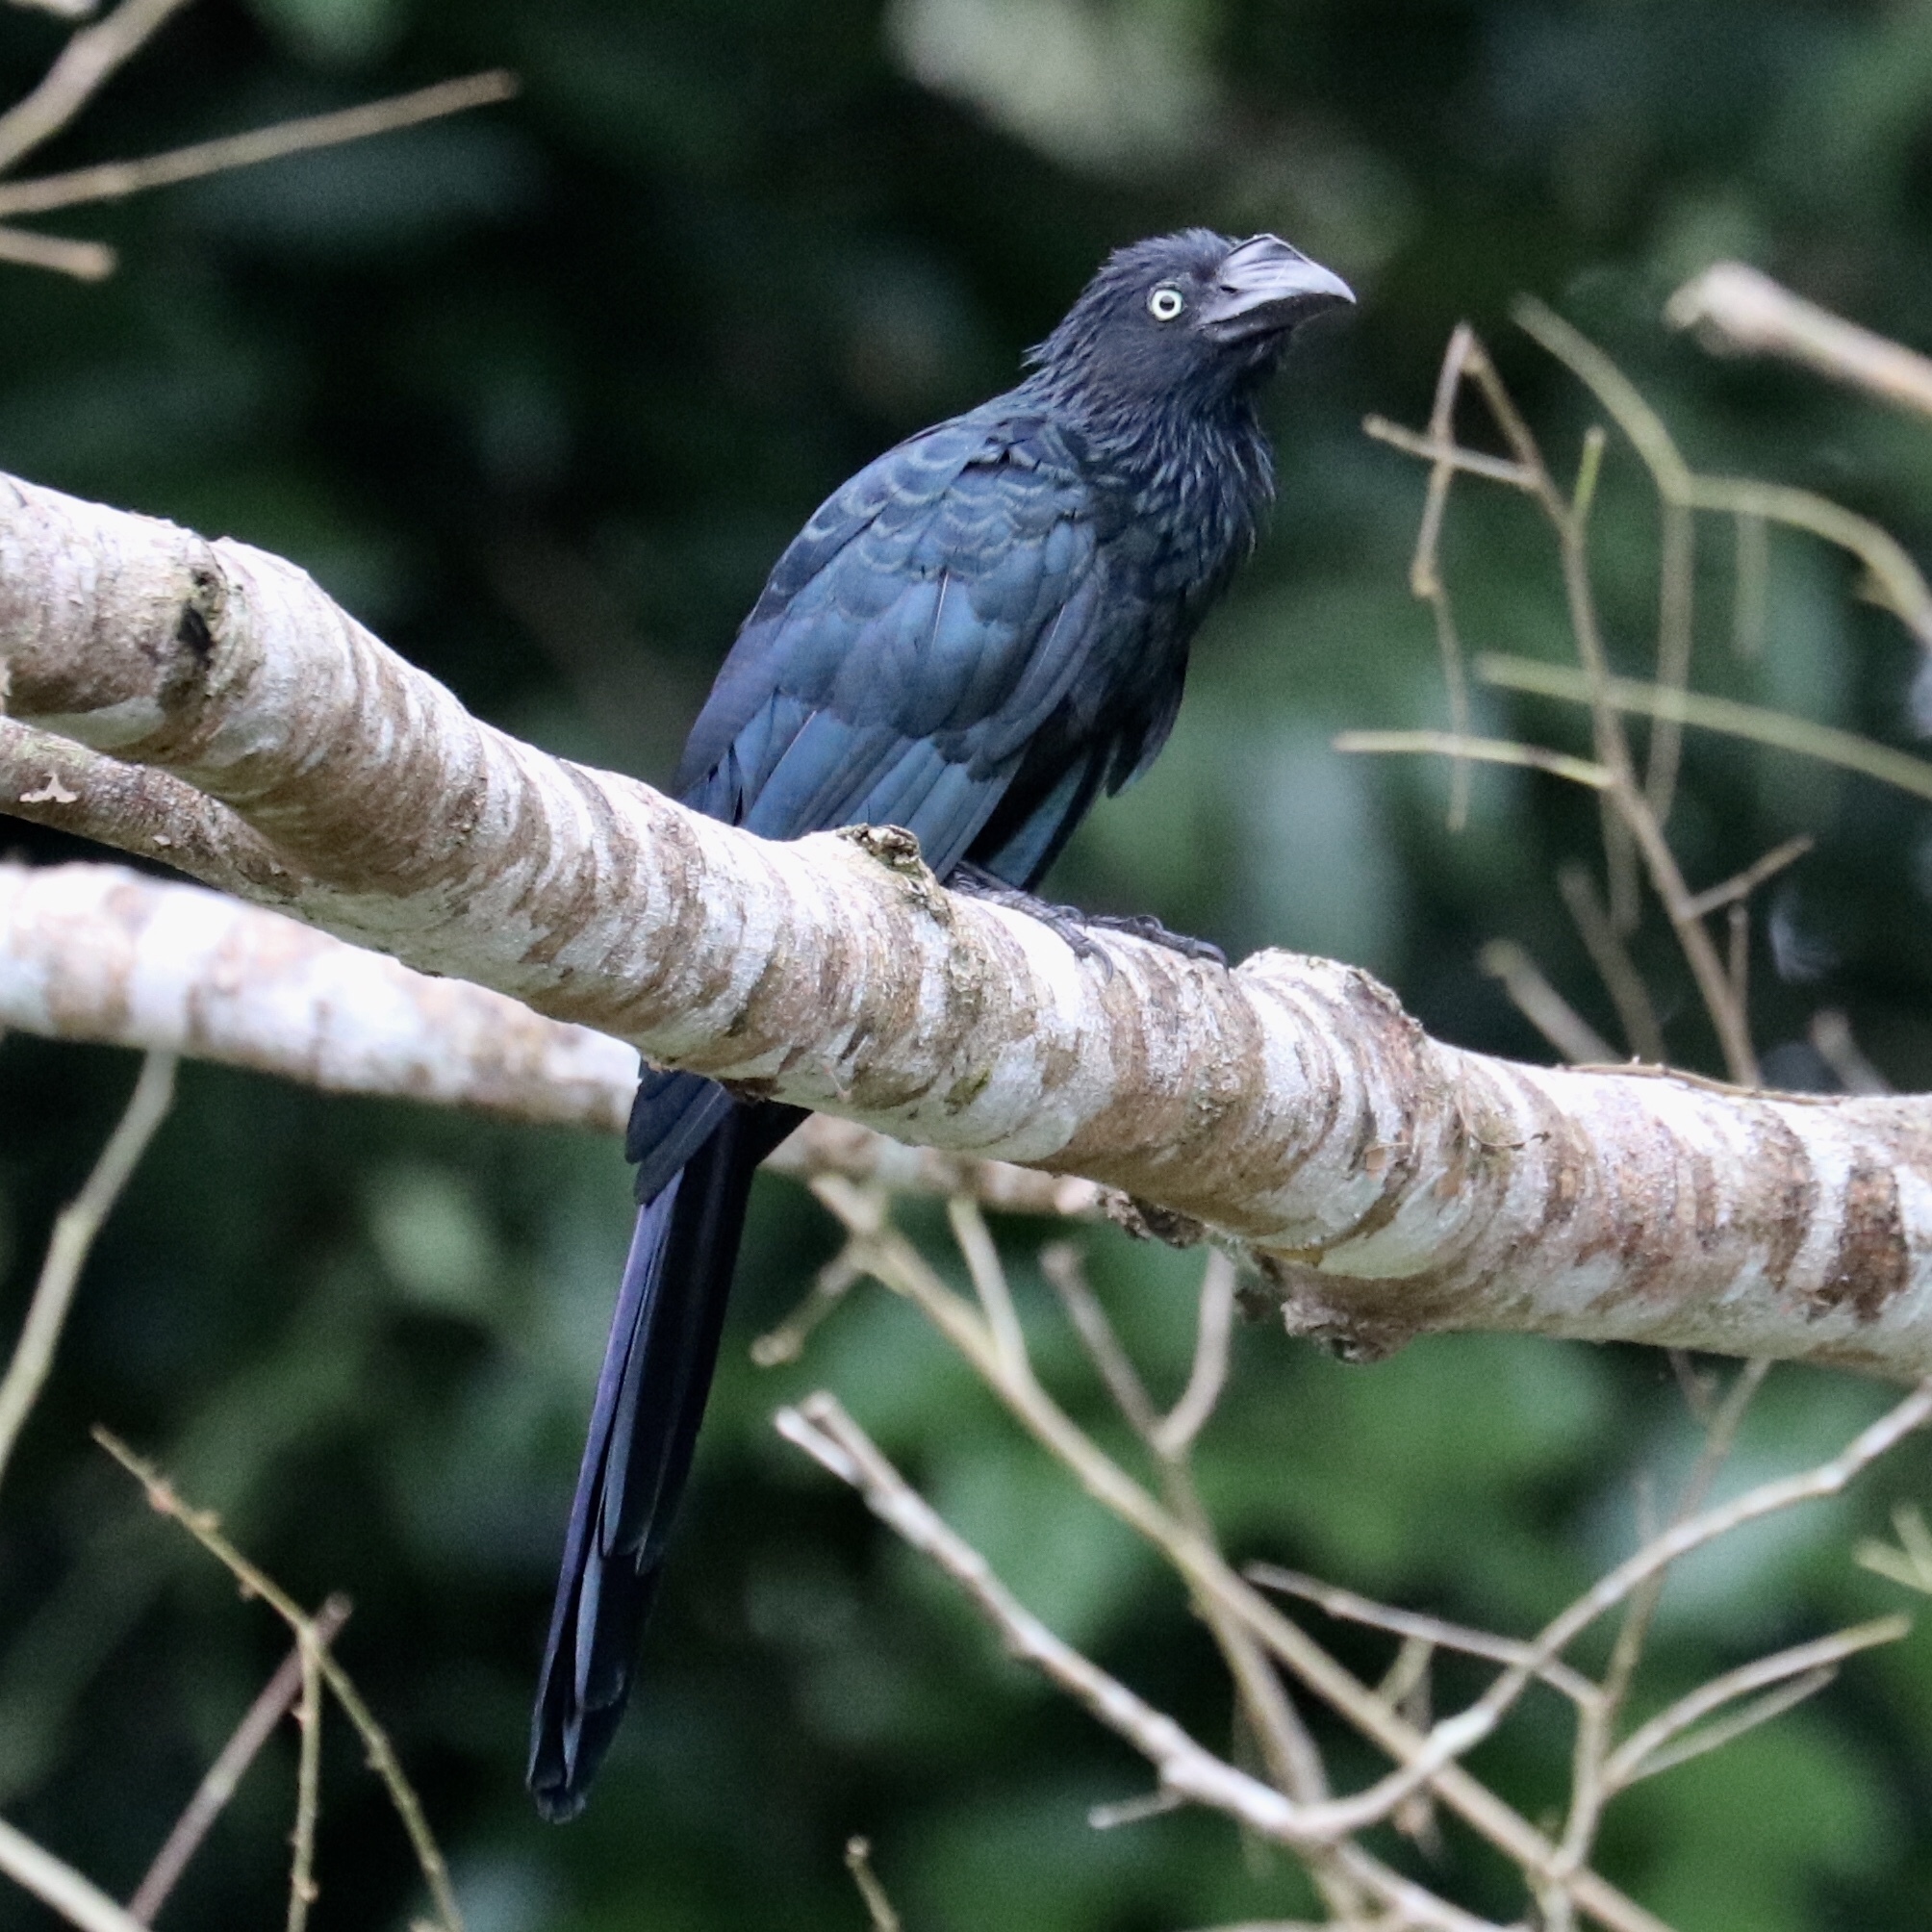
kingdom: Animalia
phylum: Chordata
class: Aves
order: Cuculiformes
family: Cuculidae
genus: Crotophaga
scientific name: Crotophaga major
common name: Greater ani
